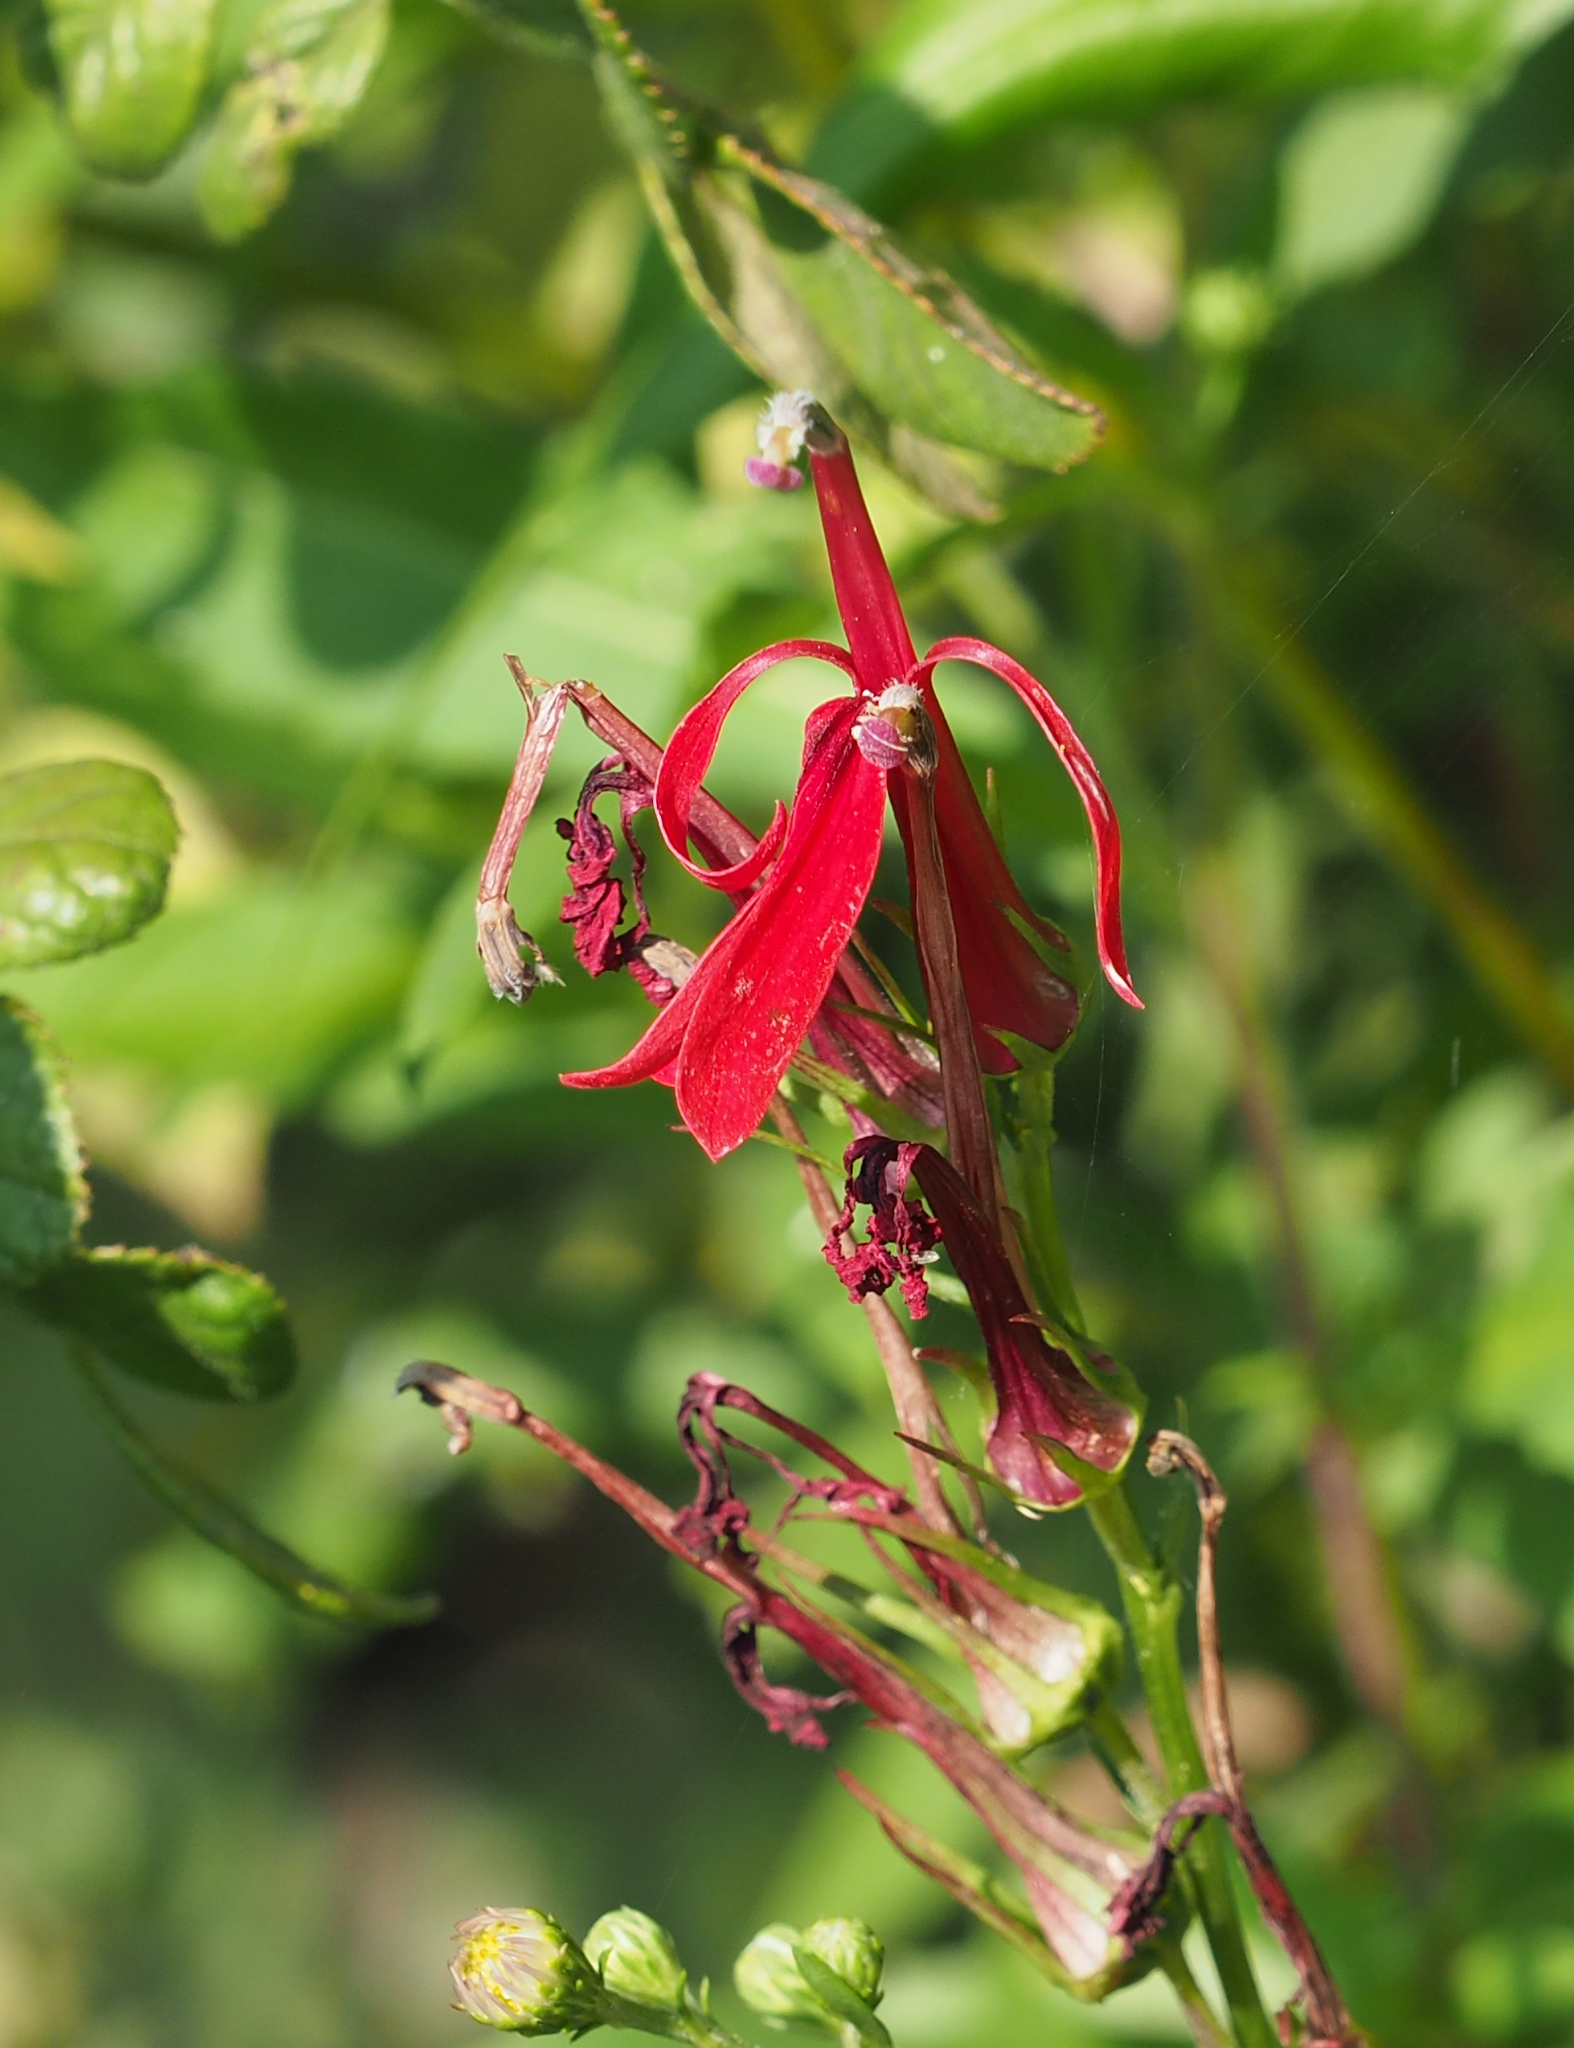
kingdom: Plantae
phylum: Tracheophyta
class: Magnoliopsida
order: Asterales
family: Campanulaceae
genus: Lobelia
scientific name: Lobelia cardinalis
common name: Cardinal flower
